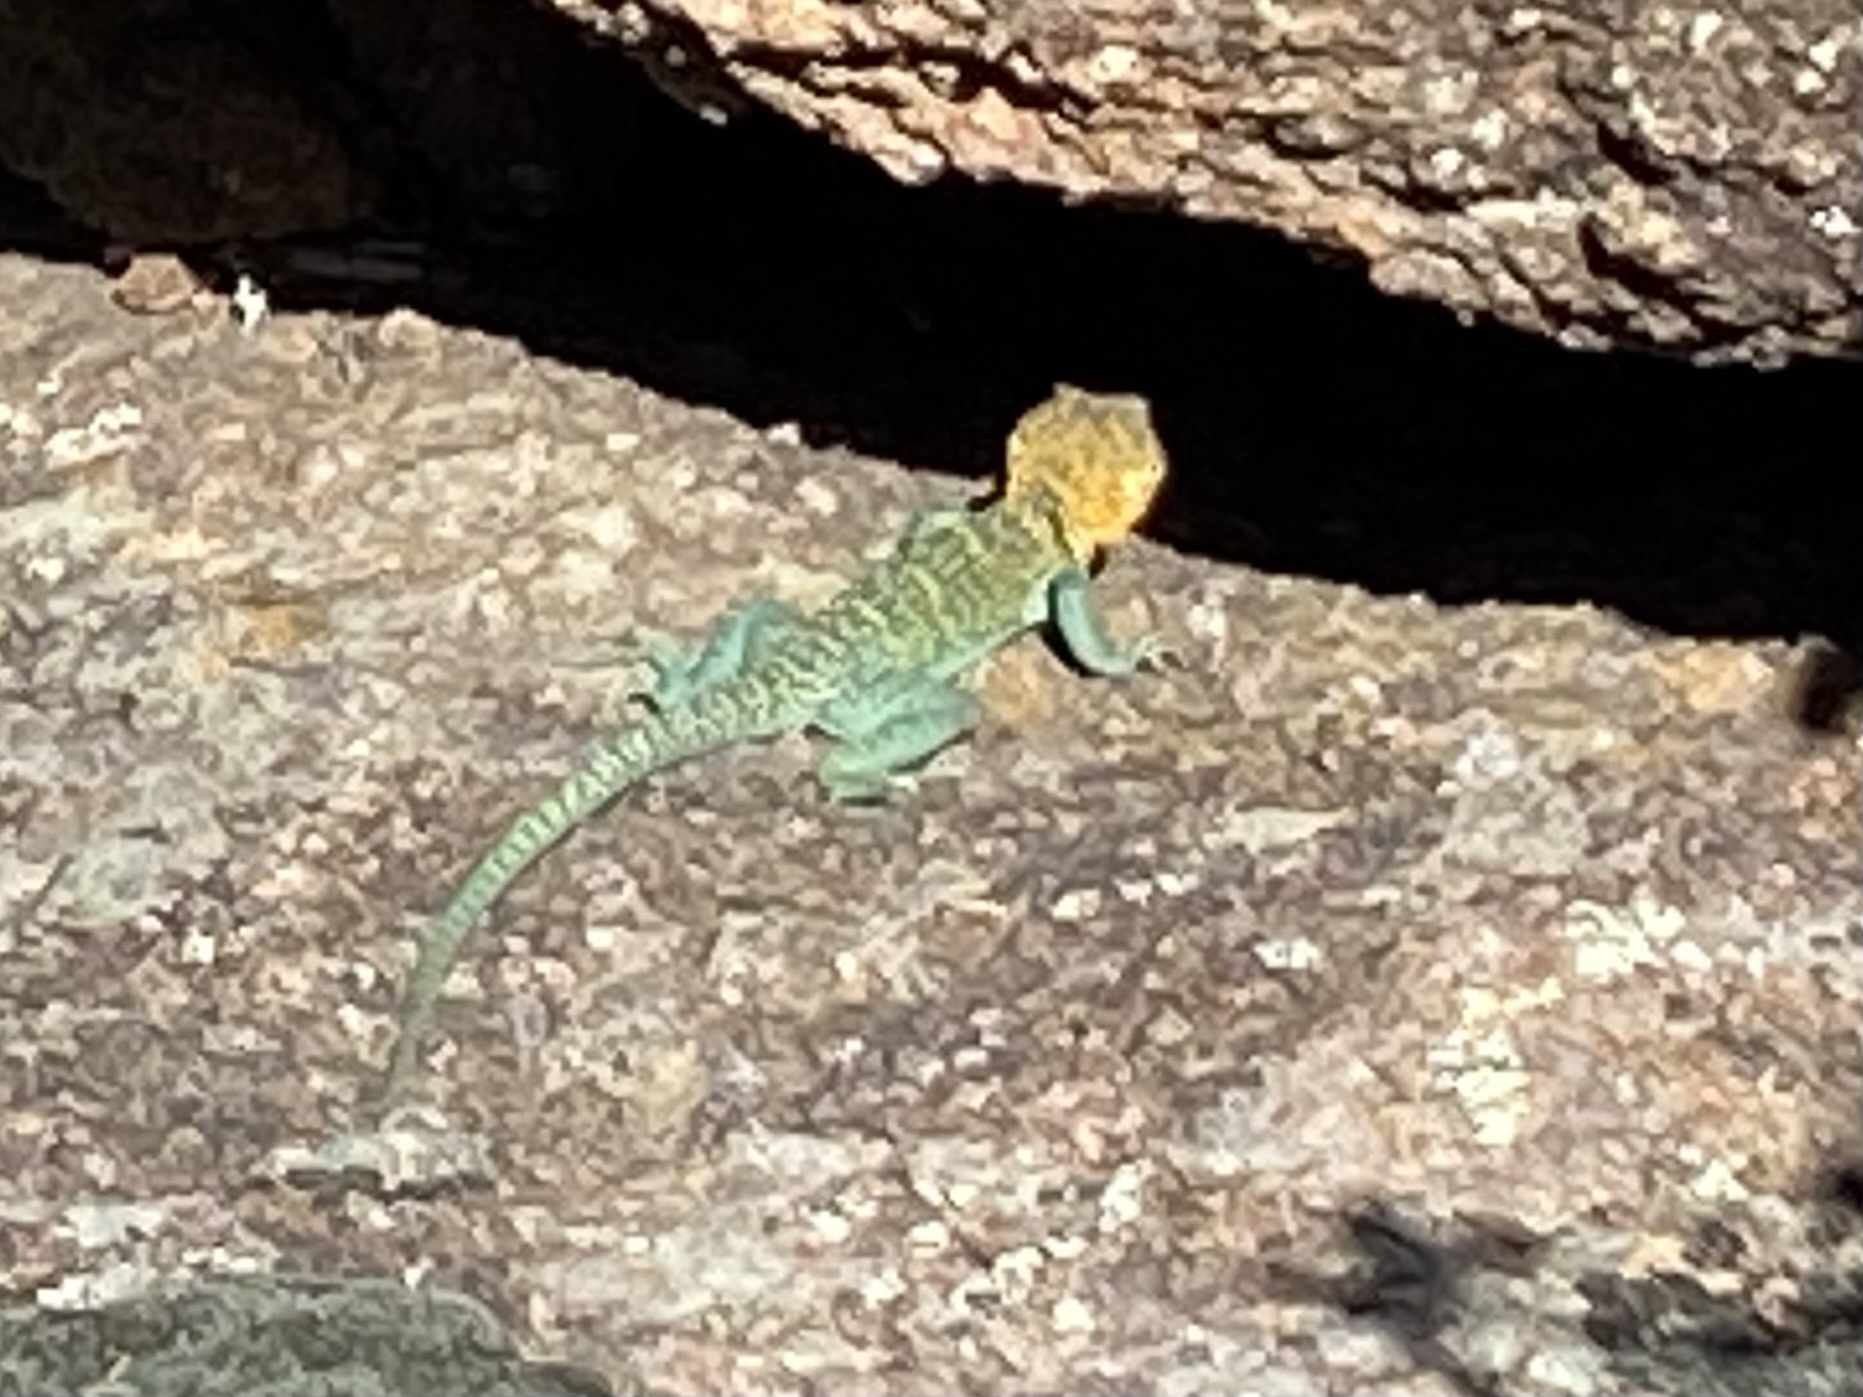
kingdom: Animalia
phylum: Chordata
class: Squamata
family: Crotaphytidae
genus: Crotaphytus
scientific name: Crotaphytus collaris
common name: Collared lizard
